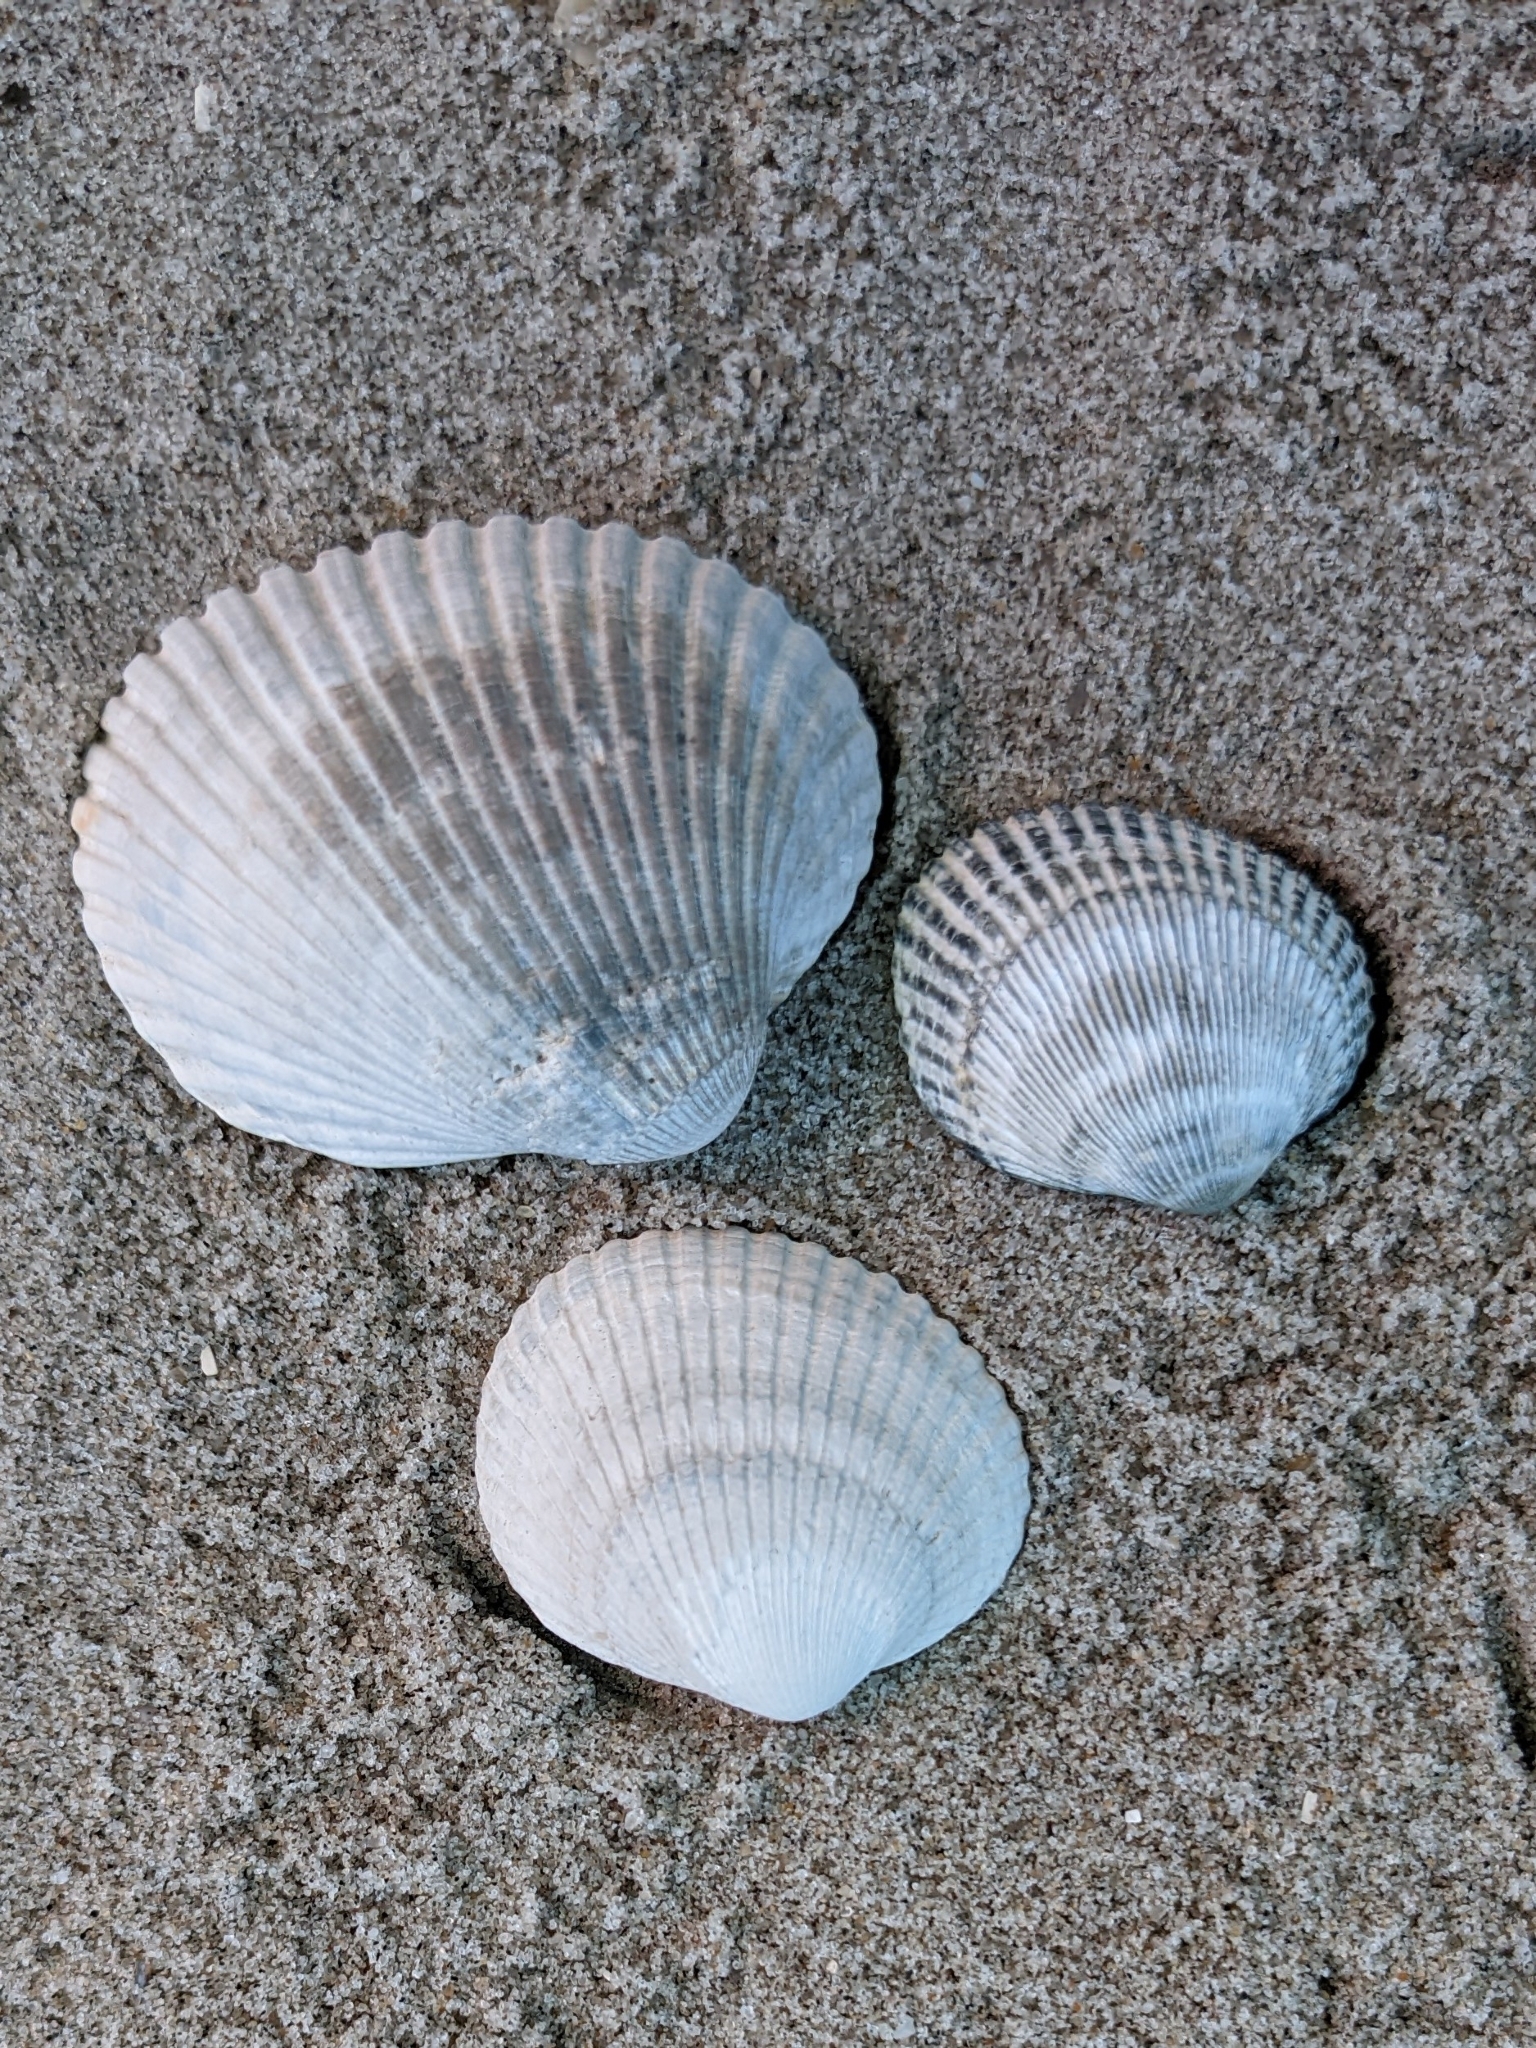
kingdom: Animalia
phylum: Mollusca
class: Bivalvia
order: Arcida
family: Arcidae
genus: Lunarca
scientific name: Lunarca ovalis
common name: Blood ark
